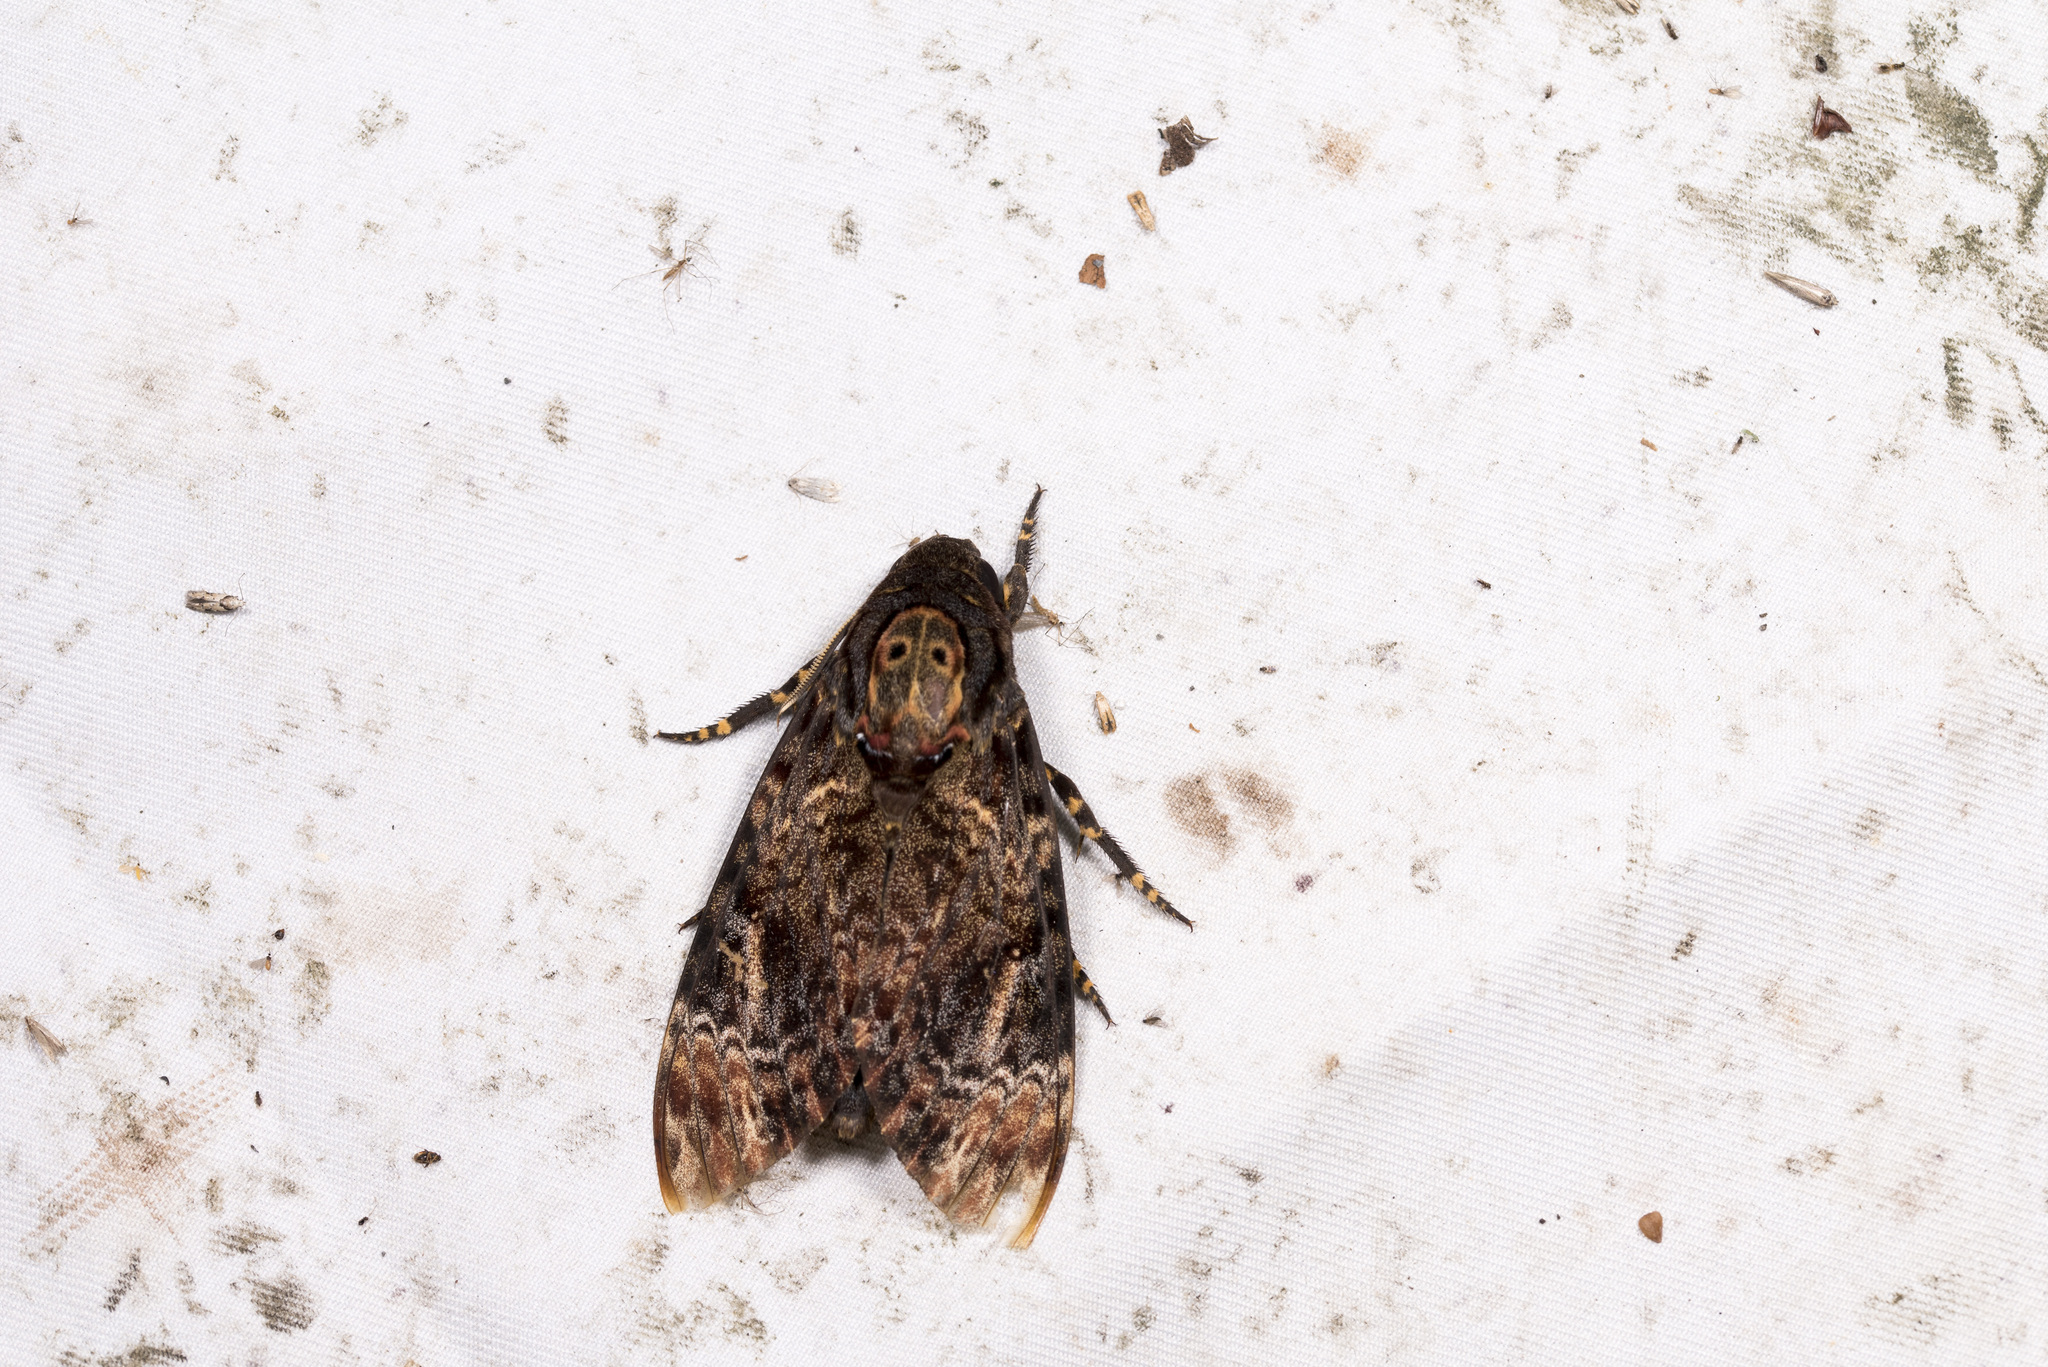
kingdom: Animalia
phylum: Arthropoda
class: Insecta
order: Lepidoptera
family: Sphingidae
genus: Acherontia
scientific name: Acherontia lachesis
